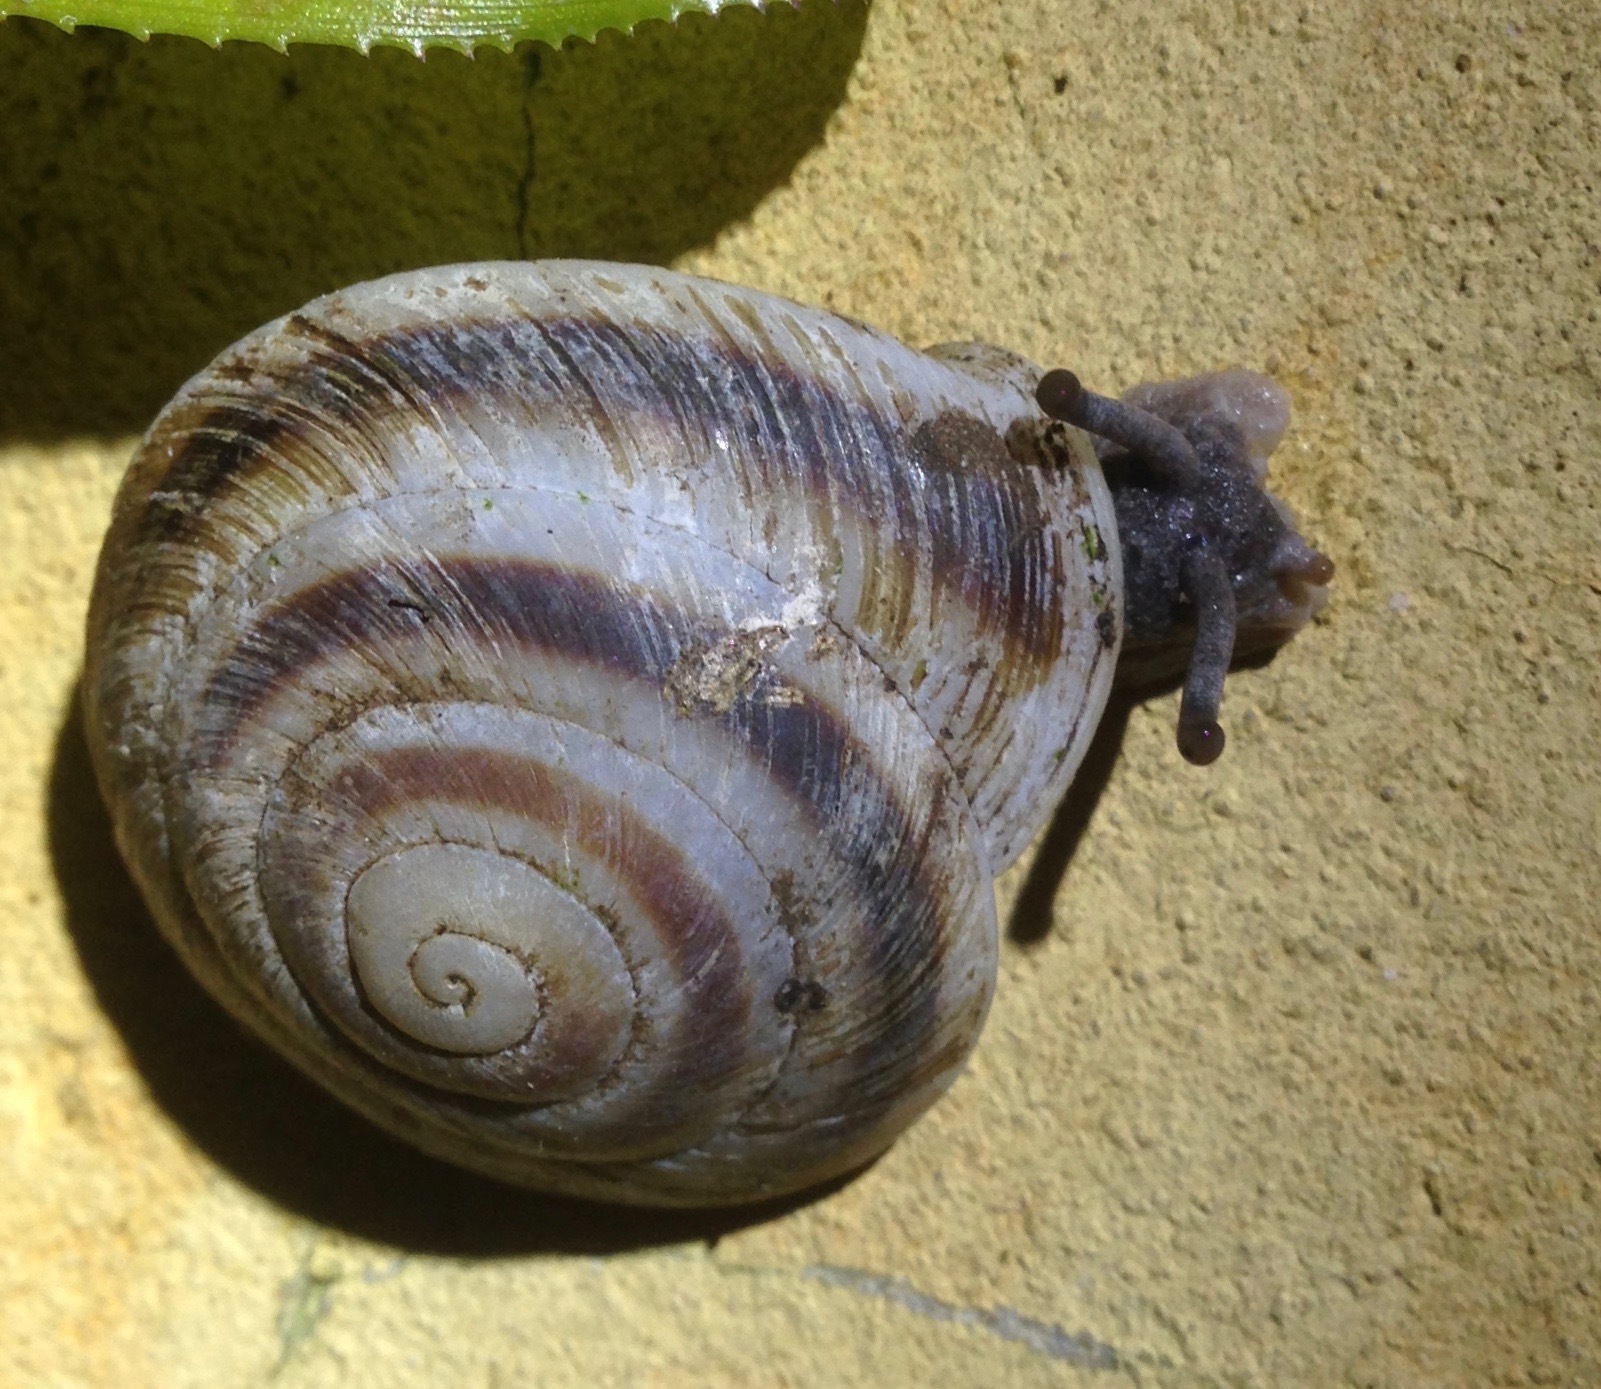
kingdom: Animalia
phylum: Mollusca
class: Gastropoda
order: Stylommatophora
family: Solaropsidae
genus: Caracolus
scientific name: Caracolus marginella
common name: Banded caracol
